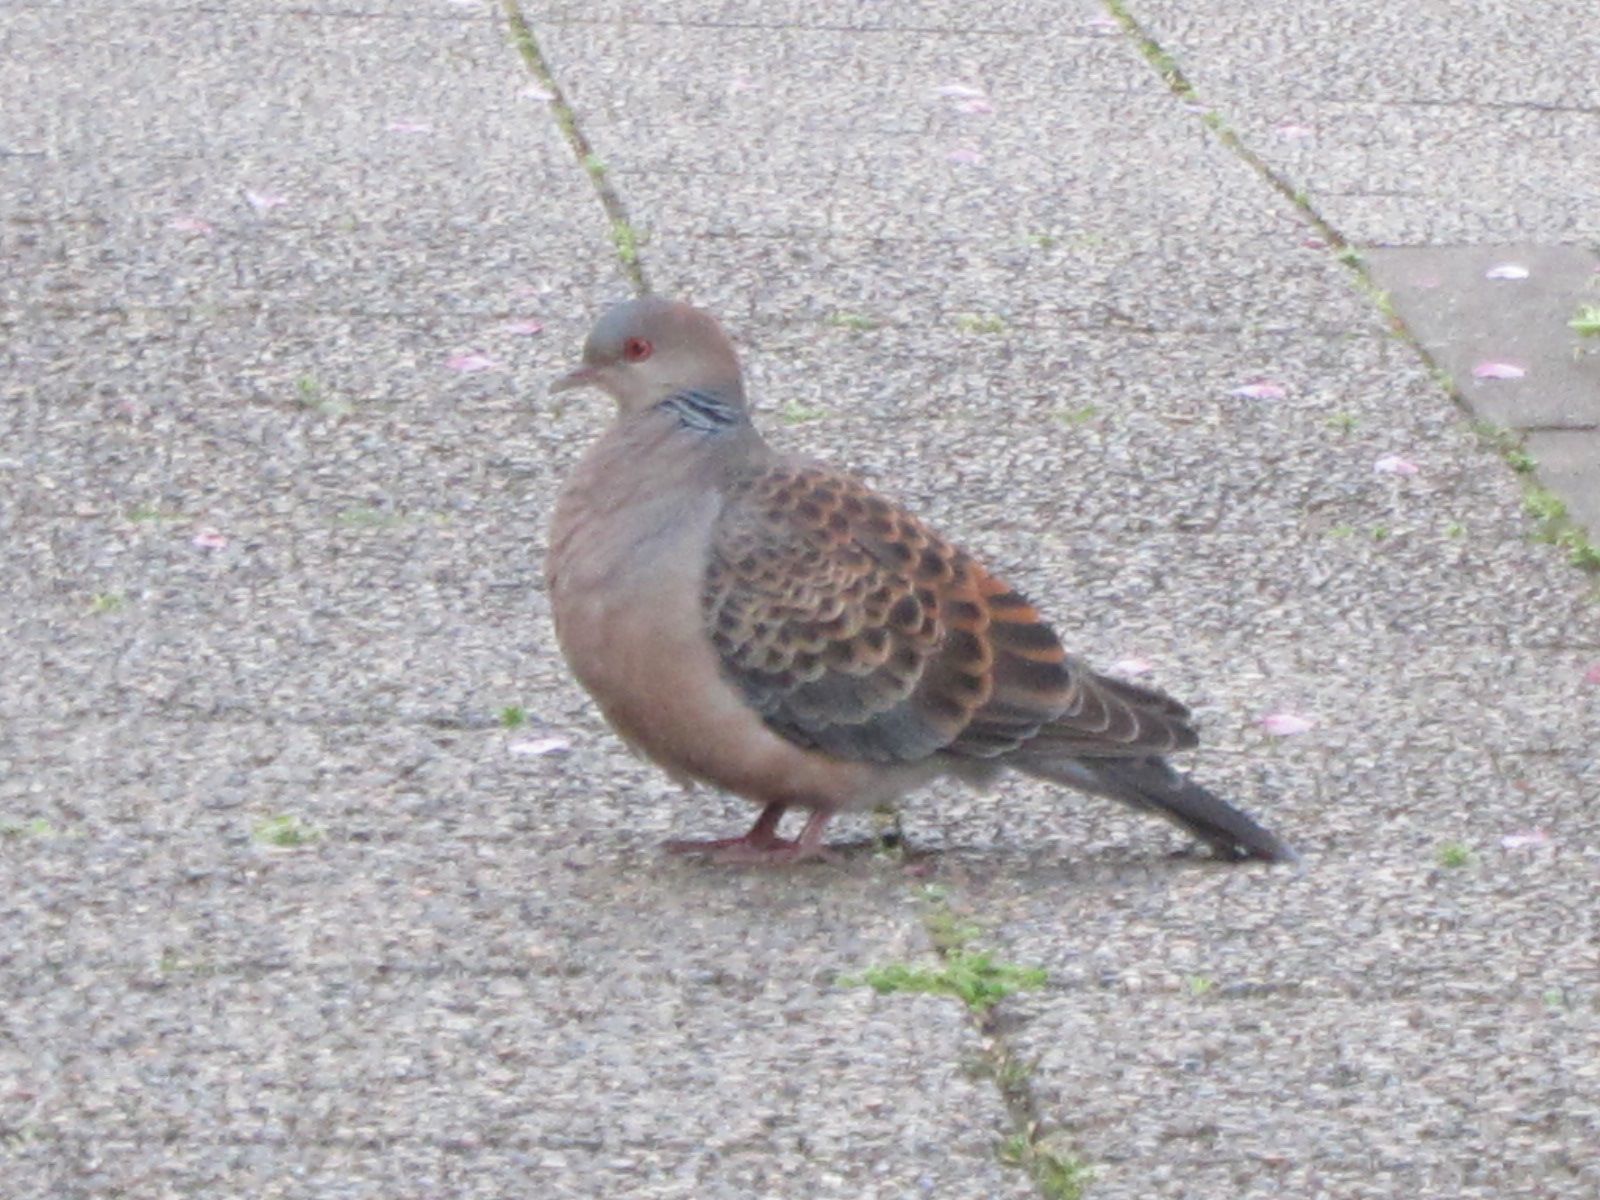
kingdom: Animalia
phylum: Chordata
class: Aves
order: Columbiformes
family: Columbidae
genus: Streptopelia
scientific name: Streptopelia orientalis
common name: Oriental turtle dove
